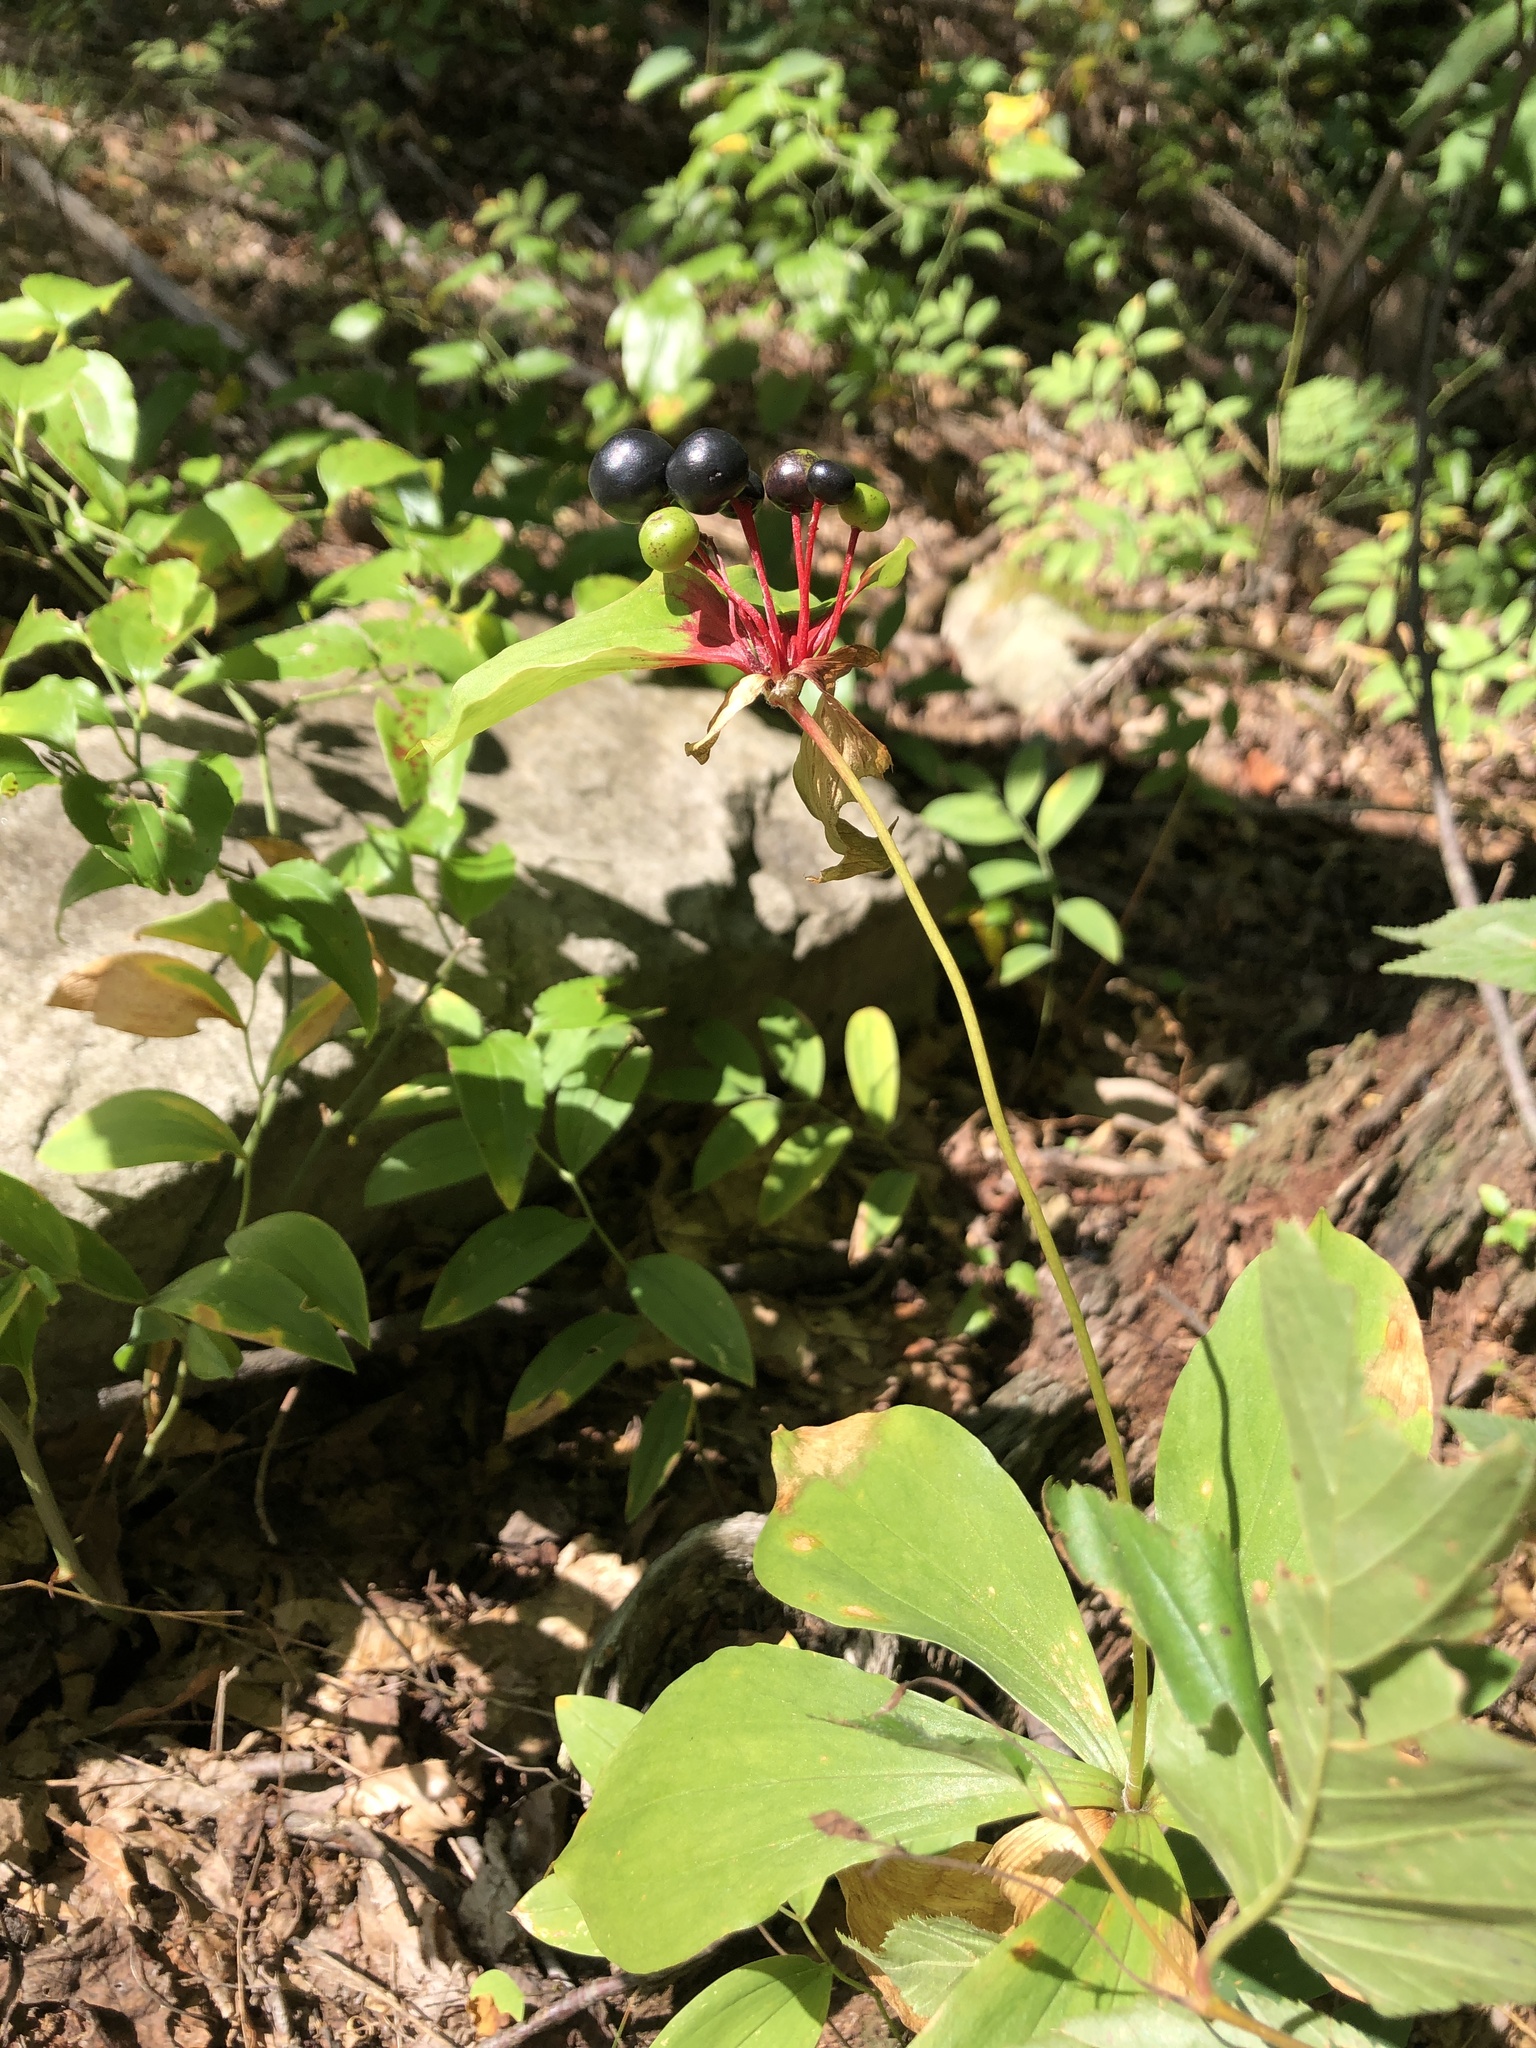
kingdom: Plantae
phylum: Tracheophyta
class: Liliopsida
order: Liliales
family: Liliaceae
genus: Medeola
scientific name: Medeola virginiana
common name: Indian cucumber-root
